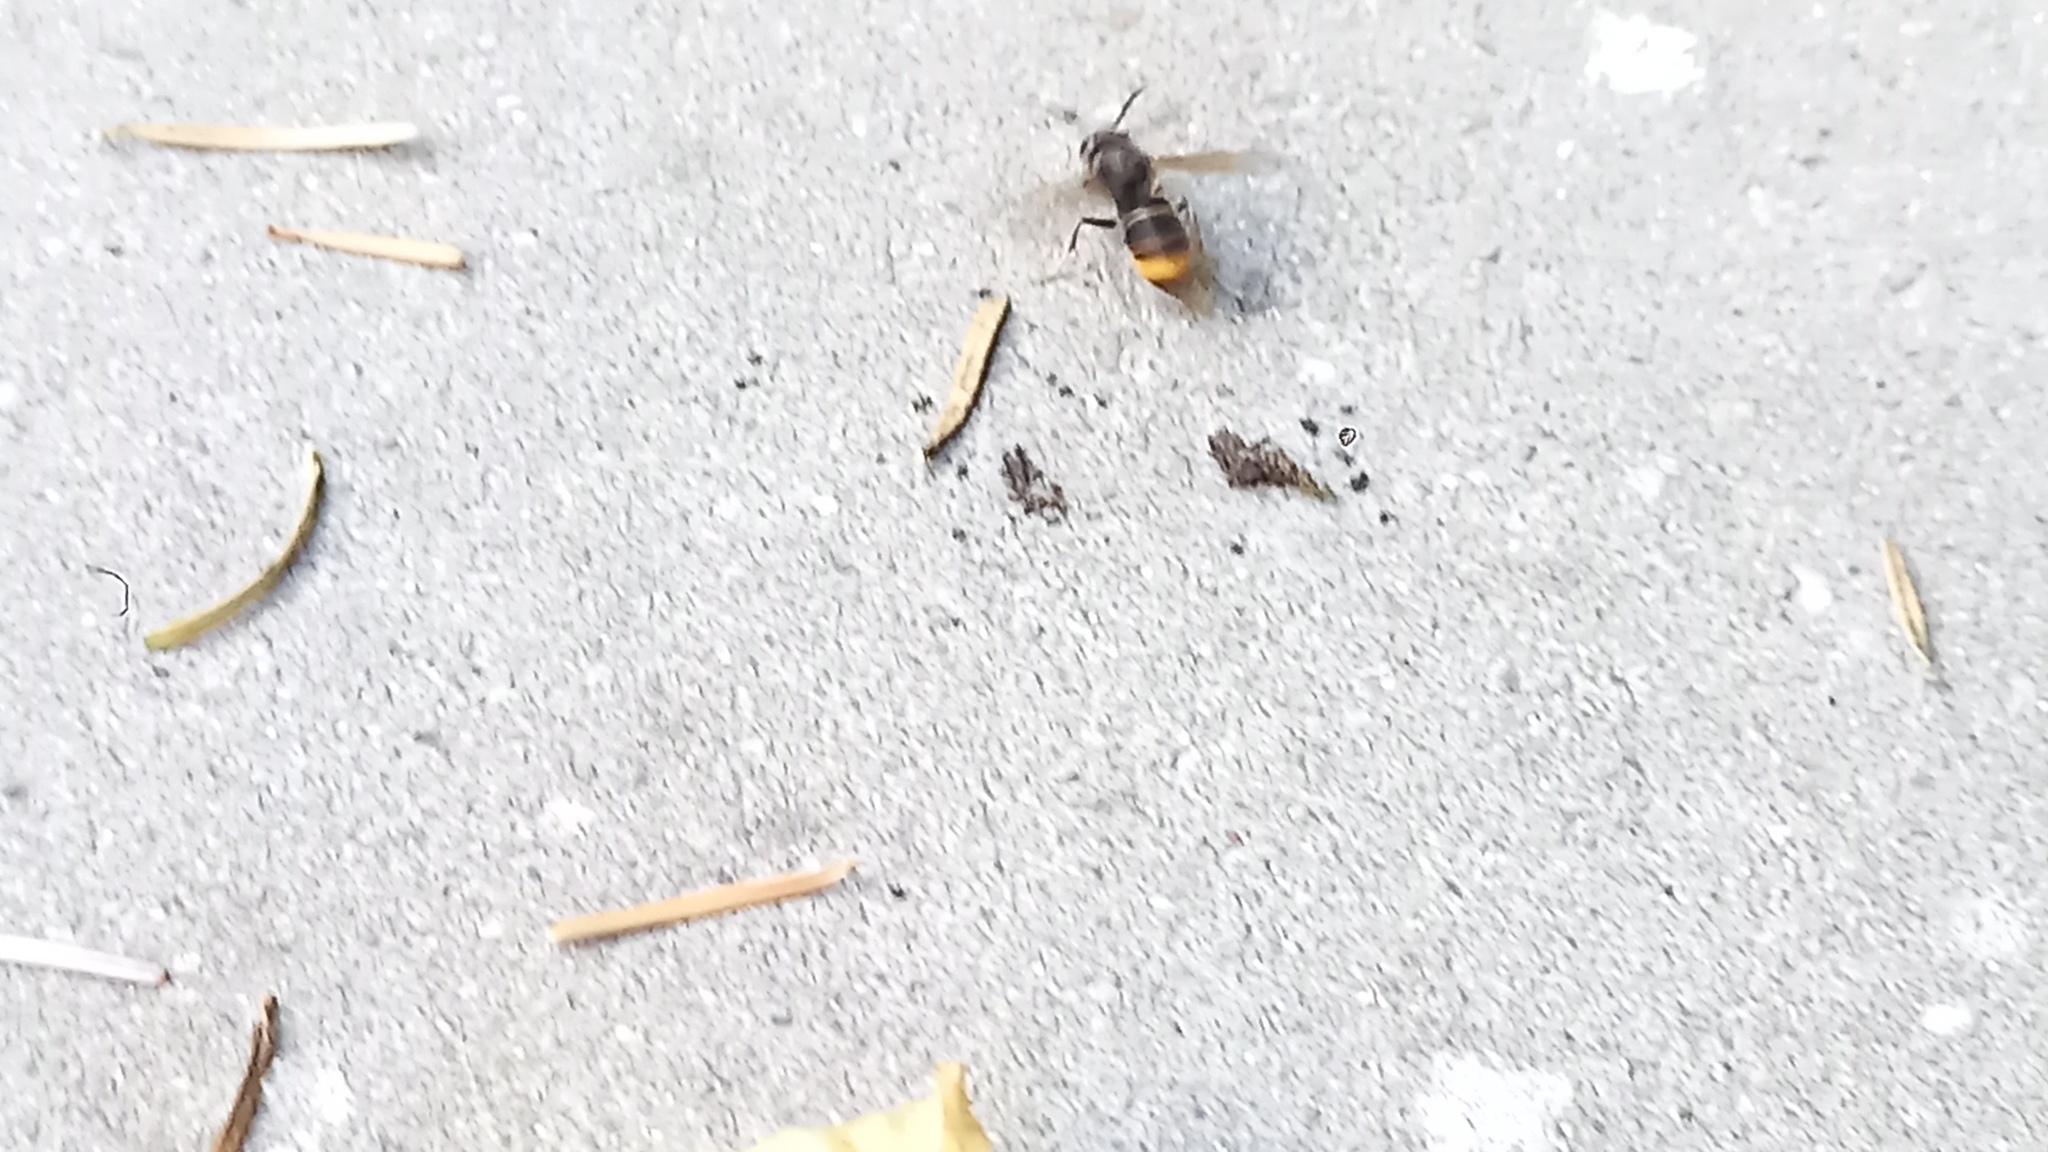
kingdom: Animalia
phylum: Arthropoda
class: Insecta
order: Hymenoptera
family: Vespidae
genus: Vespa
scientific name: Vespa velutina
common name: Asian hornet
